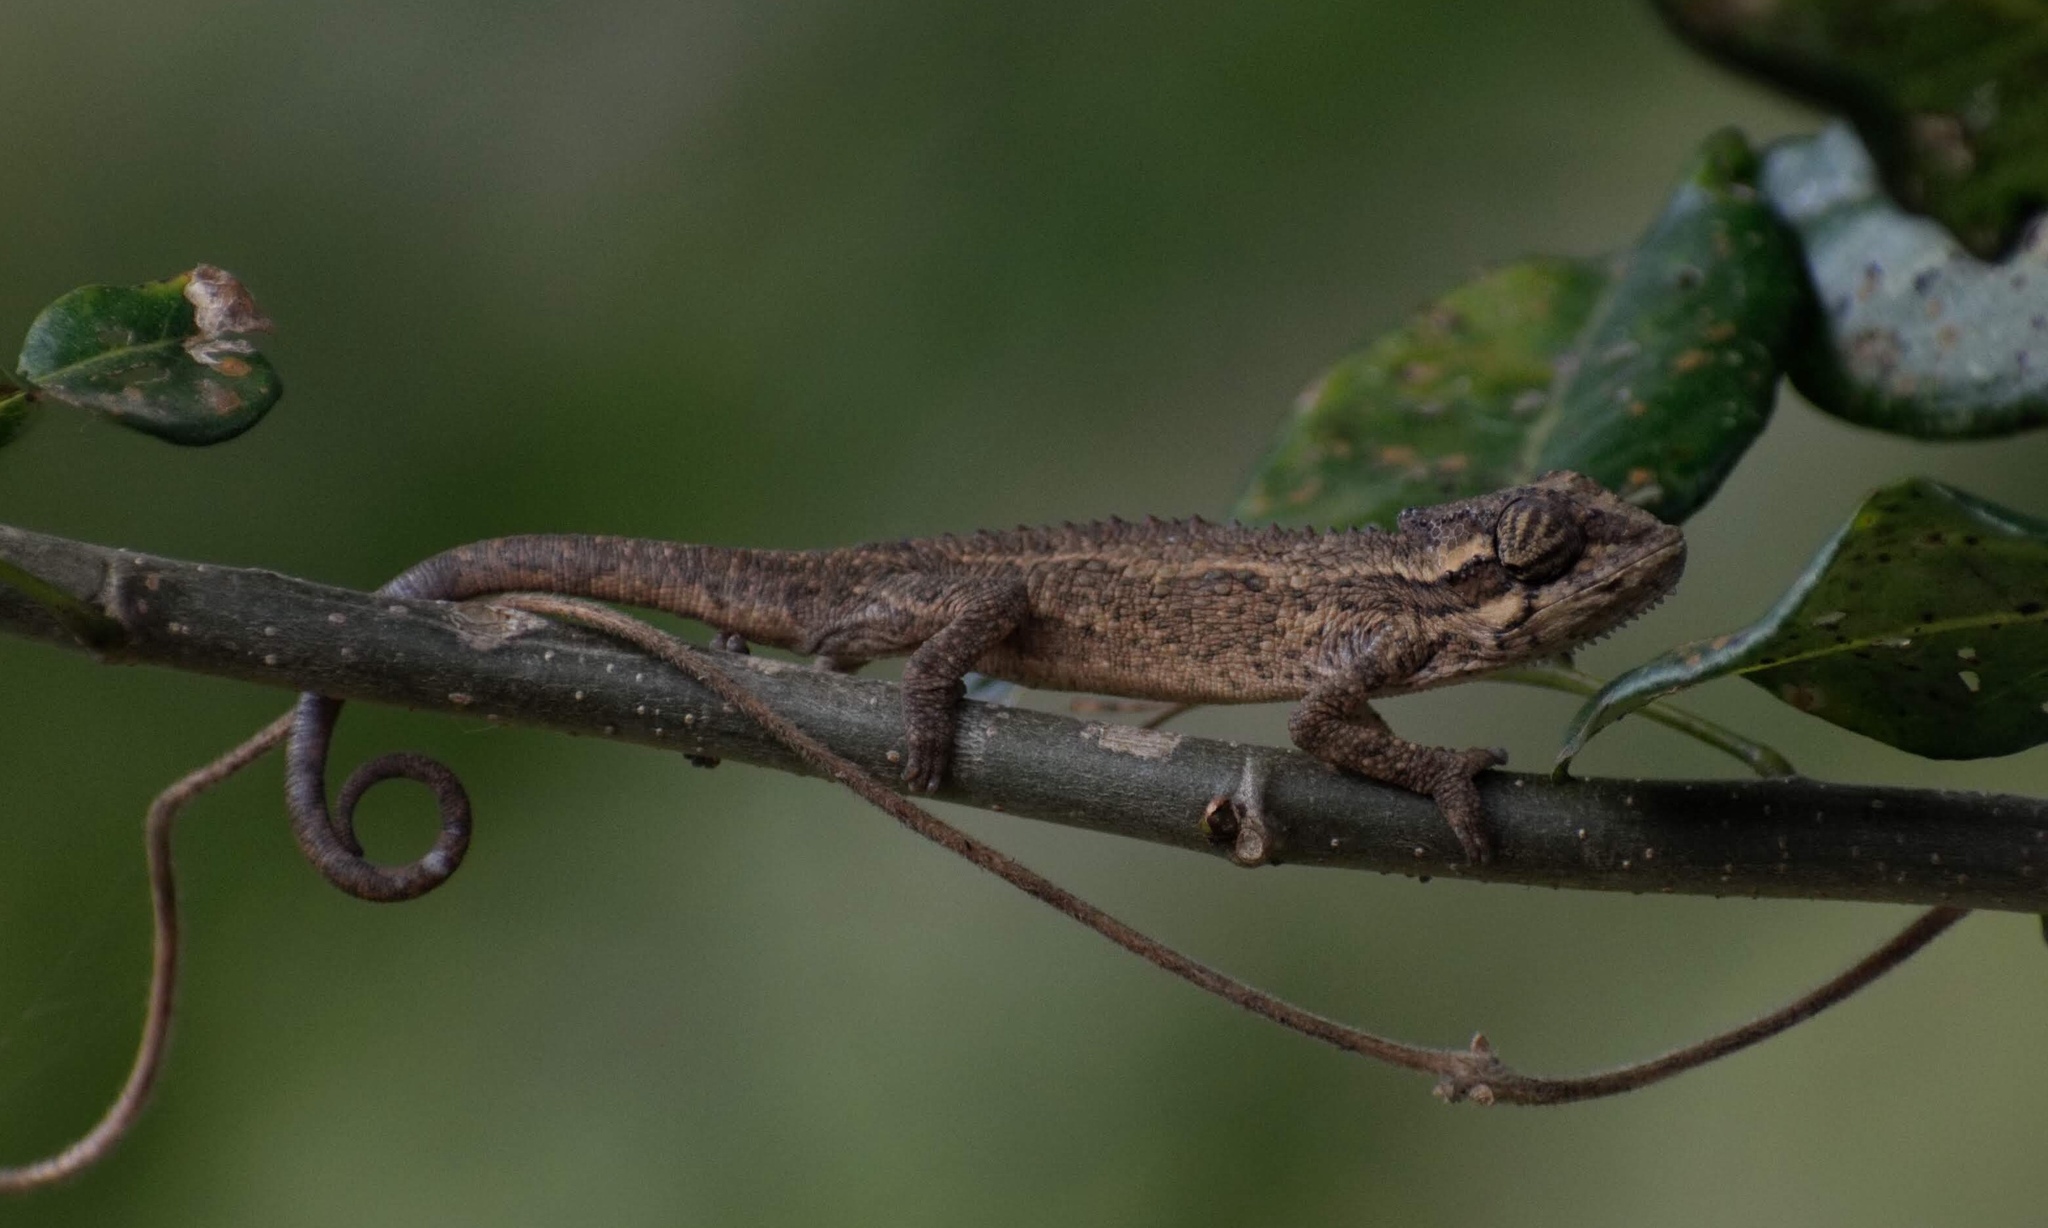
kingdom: Animalia
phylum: Chordata
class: Squamata
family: Chamaeleonidae
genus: Bradypodion
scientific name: Bradypodion melanocephalum
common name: Black-headed dwarf chameleon
